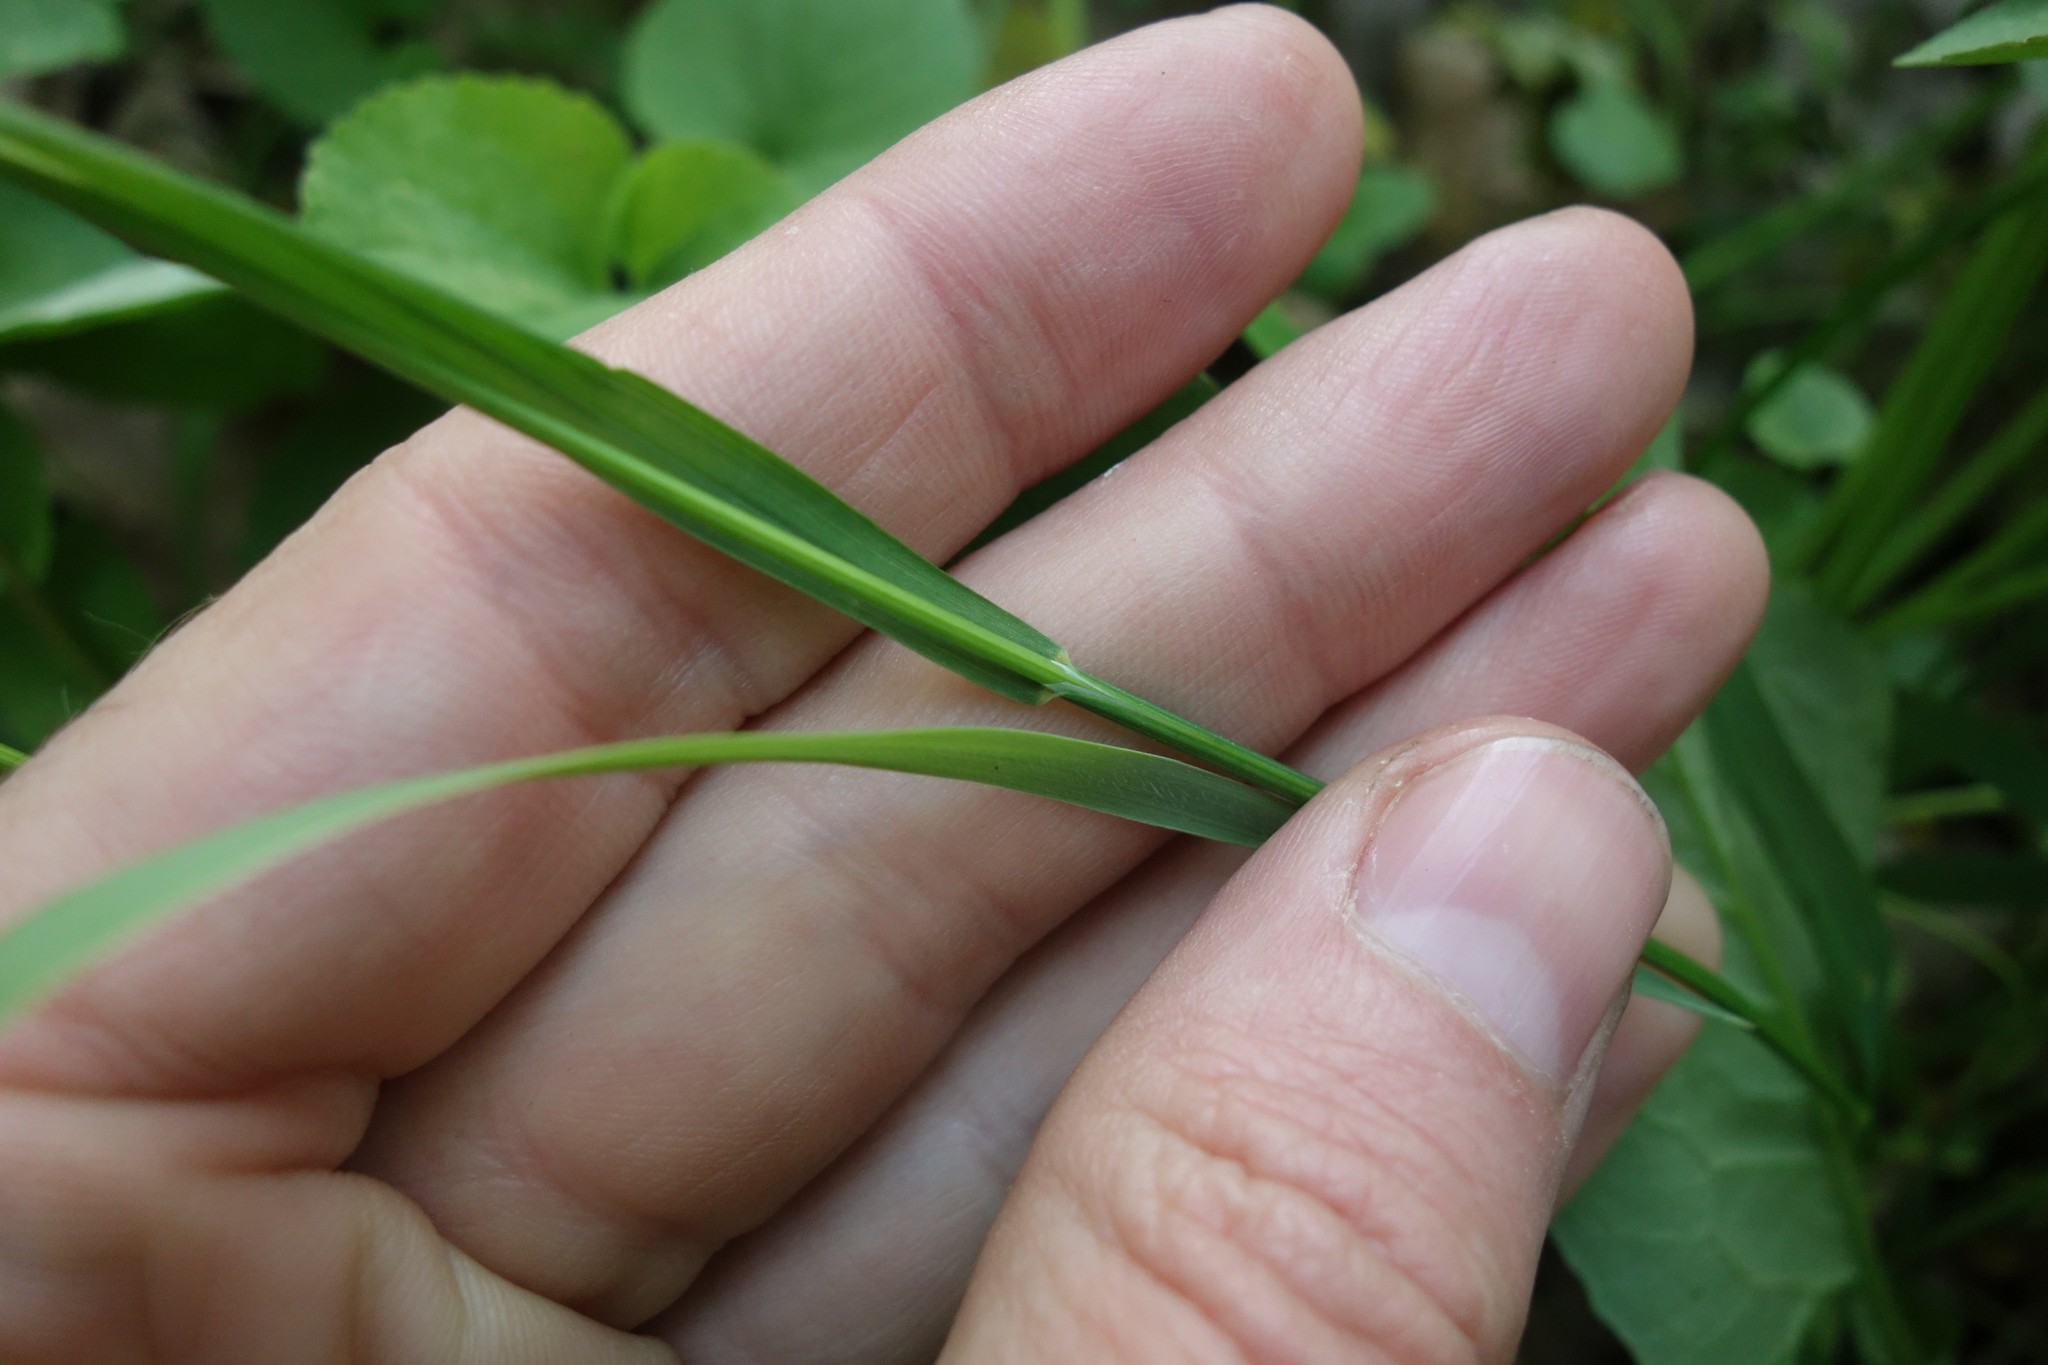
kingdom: Plantae
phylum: Tracheophyta
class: Liliopsida
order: Poales
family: Poaceae
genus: Melica
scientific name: Melica picta
